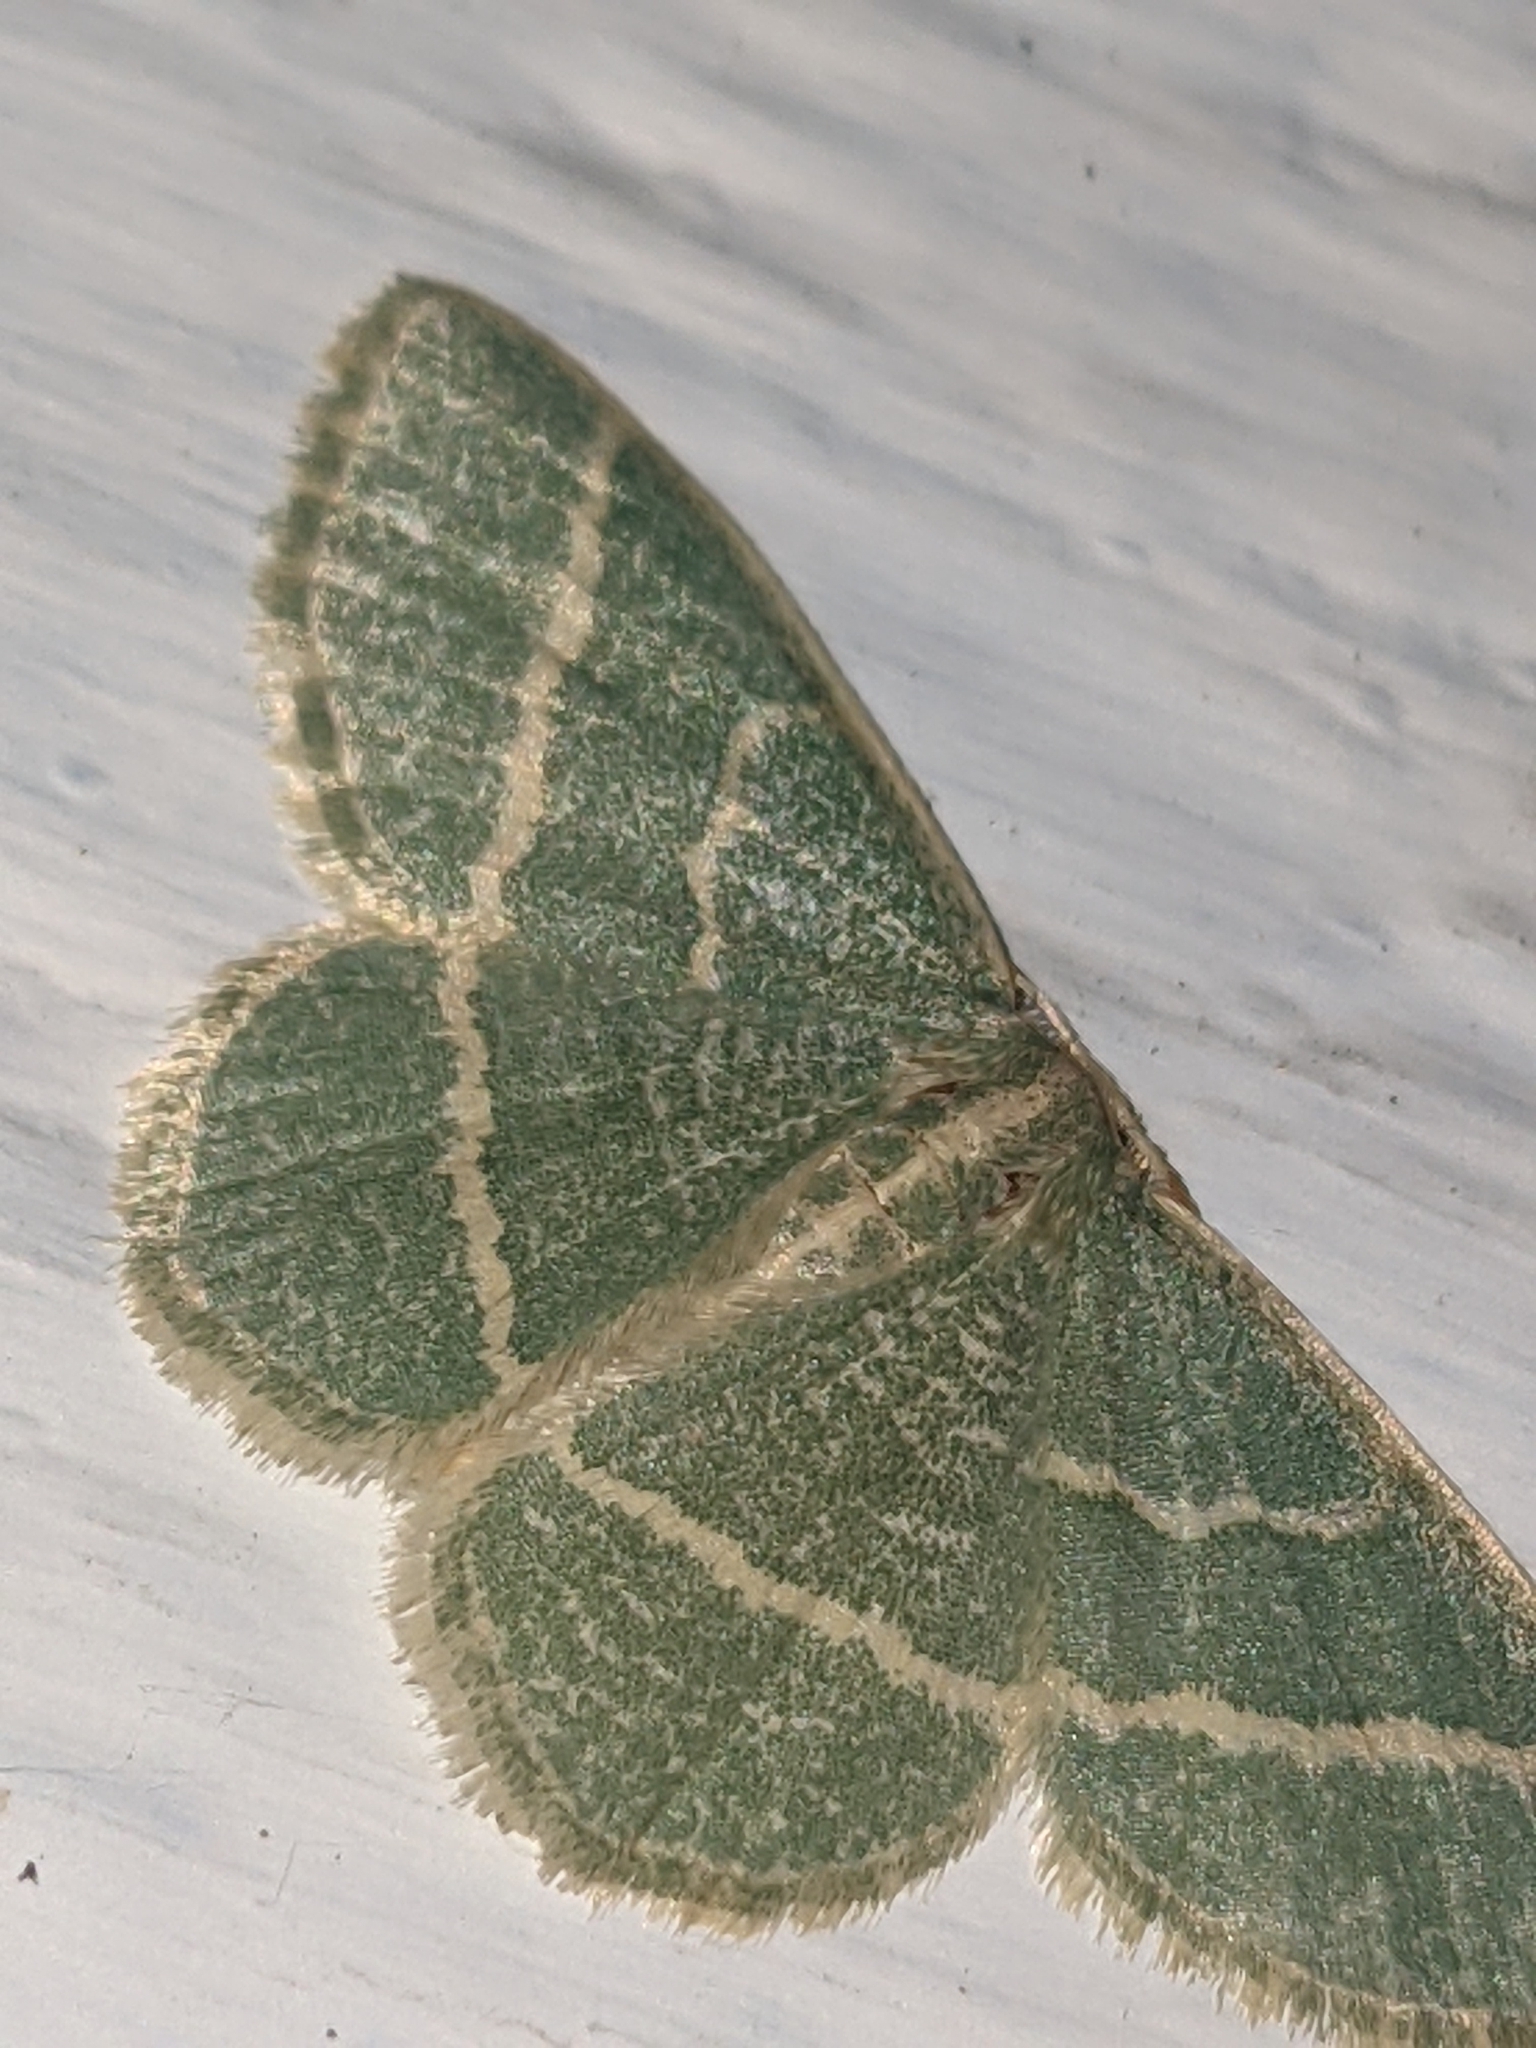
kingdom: Animalia
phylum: Arthropoda
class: Insecta
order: Lepidoptera
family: Geometridae
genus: Chlorochlamys
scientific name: Chlorochlamys chloroleucaria
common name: Blackberry looper
